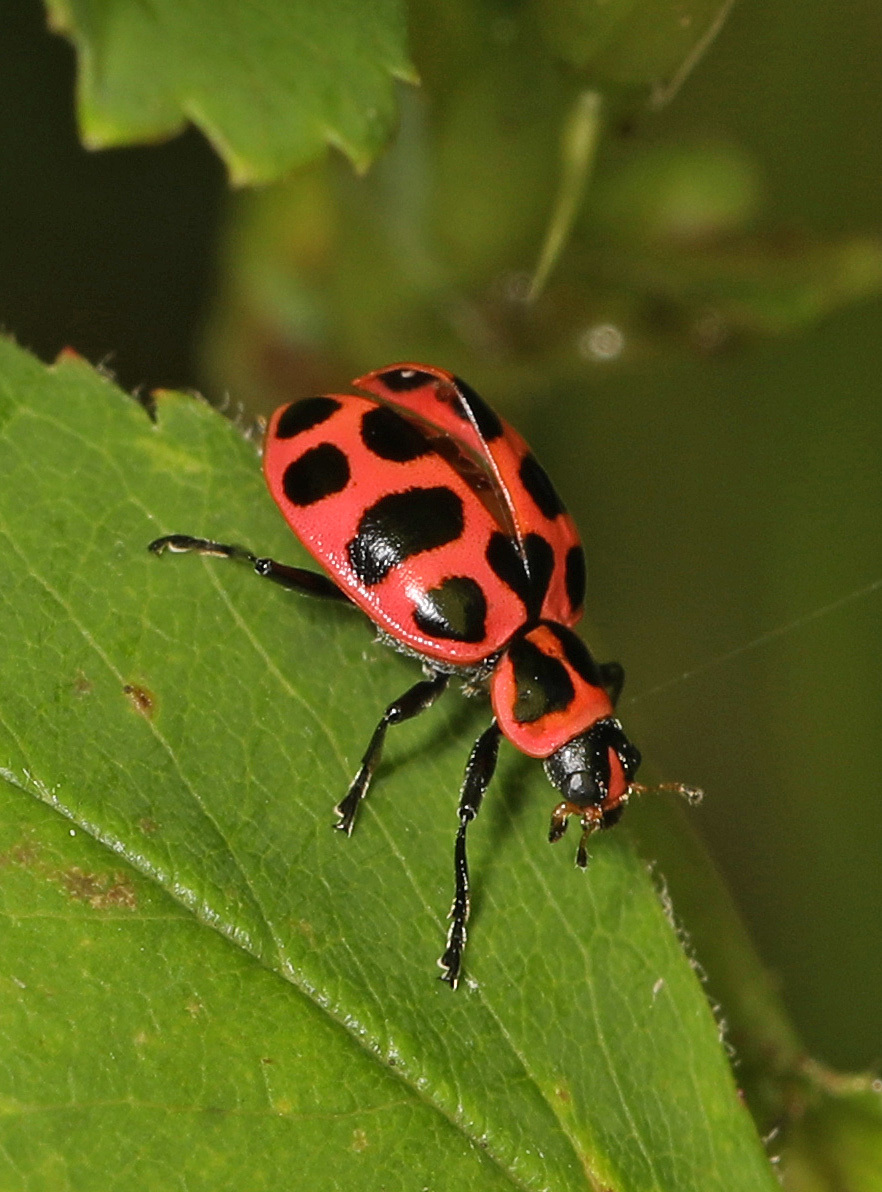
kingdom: Animalia
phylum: Arthropoda
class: Insecta
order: Coleoptera
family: Coccinellidae
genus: Coleomegilla
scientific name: Coleomegilla maculata
